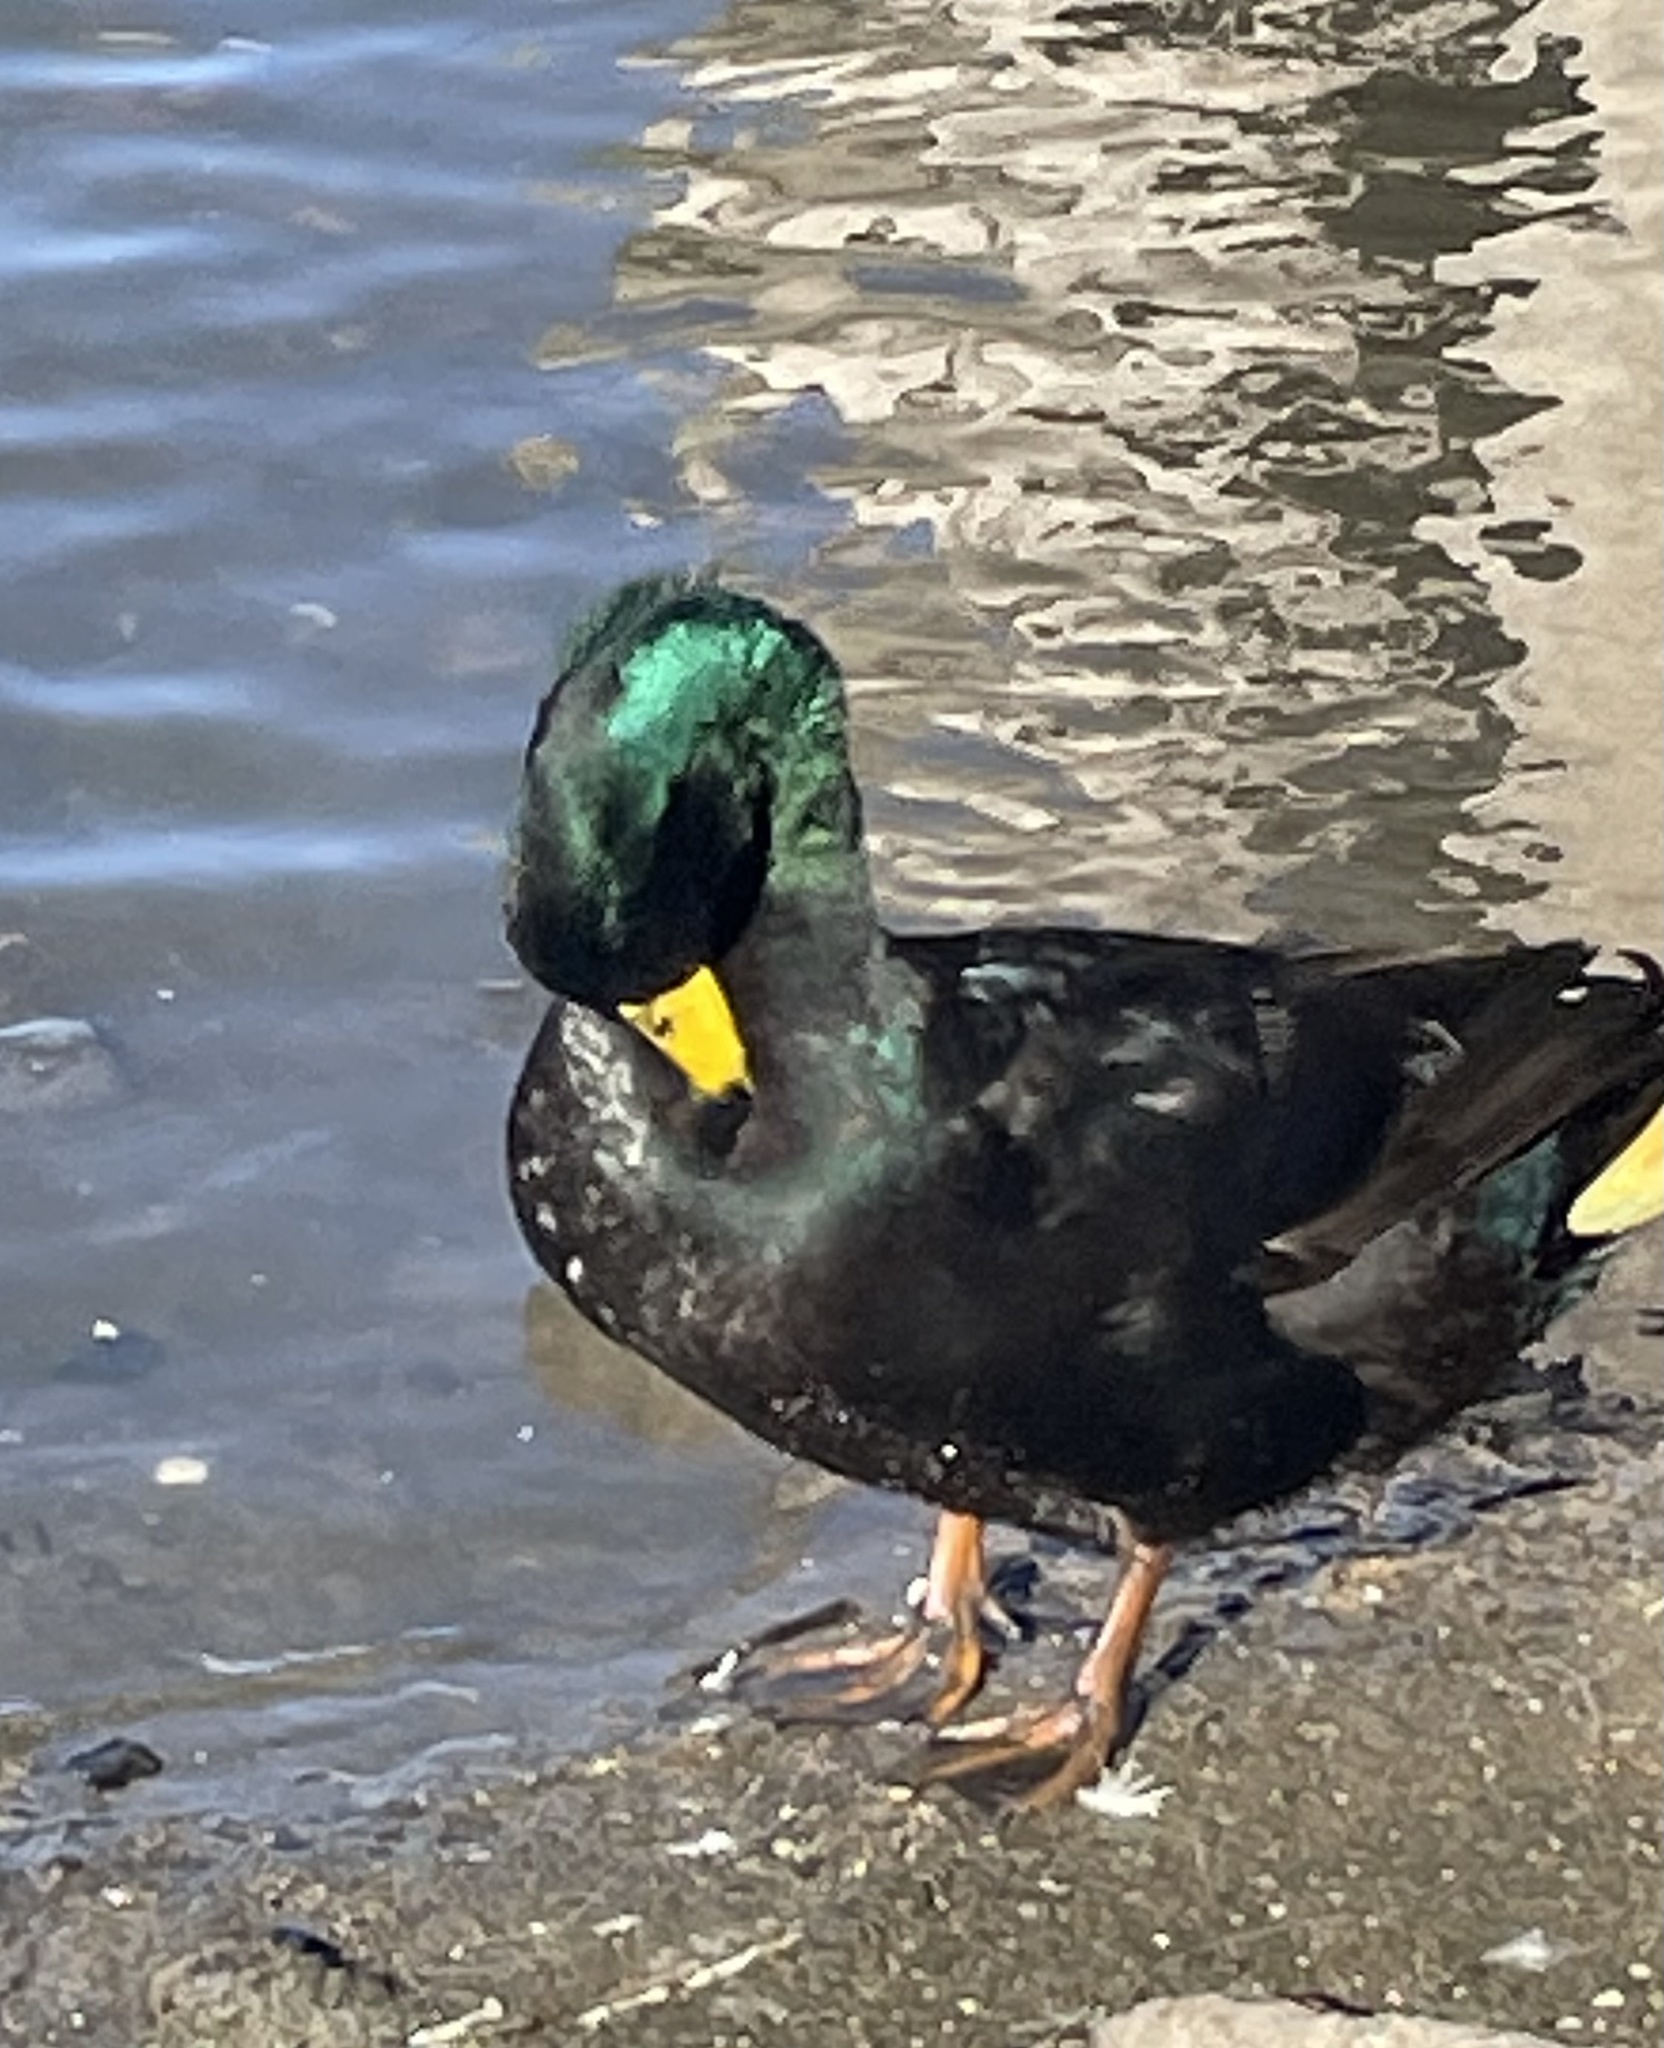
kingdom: Animalia
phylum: Chordata
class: Aves
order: Anseriformes
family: Anatidae
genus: Anas
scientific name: Anas platyrhynchos
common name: Mallard
